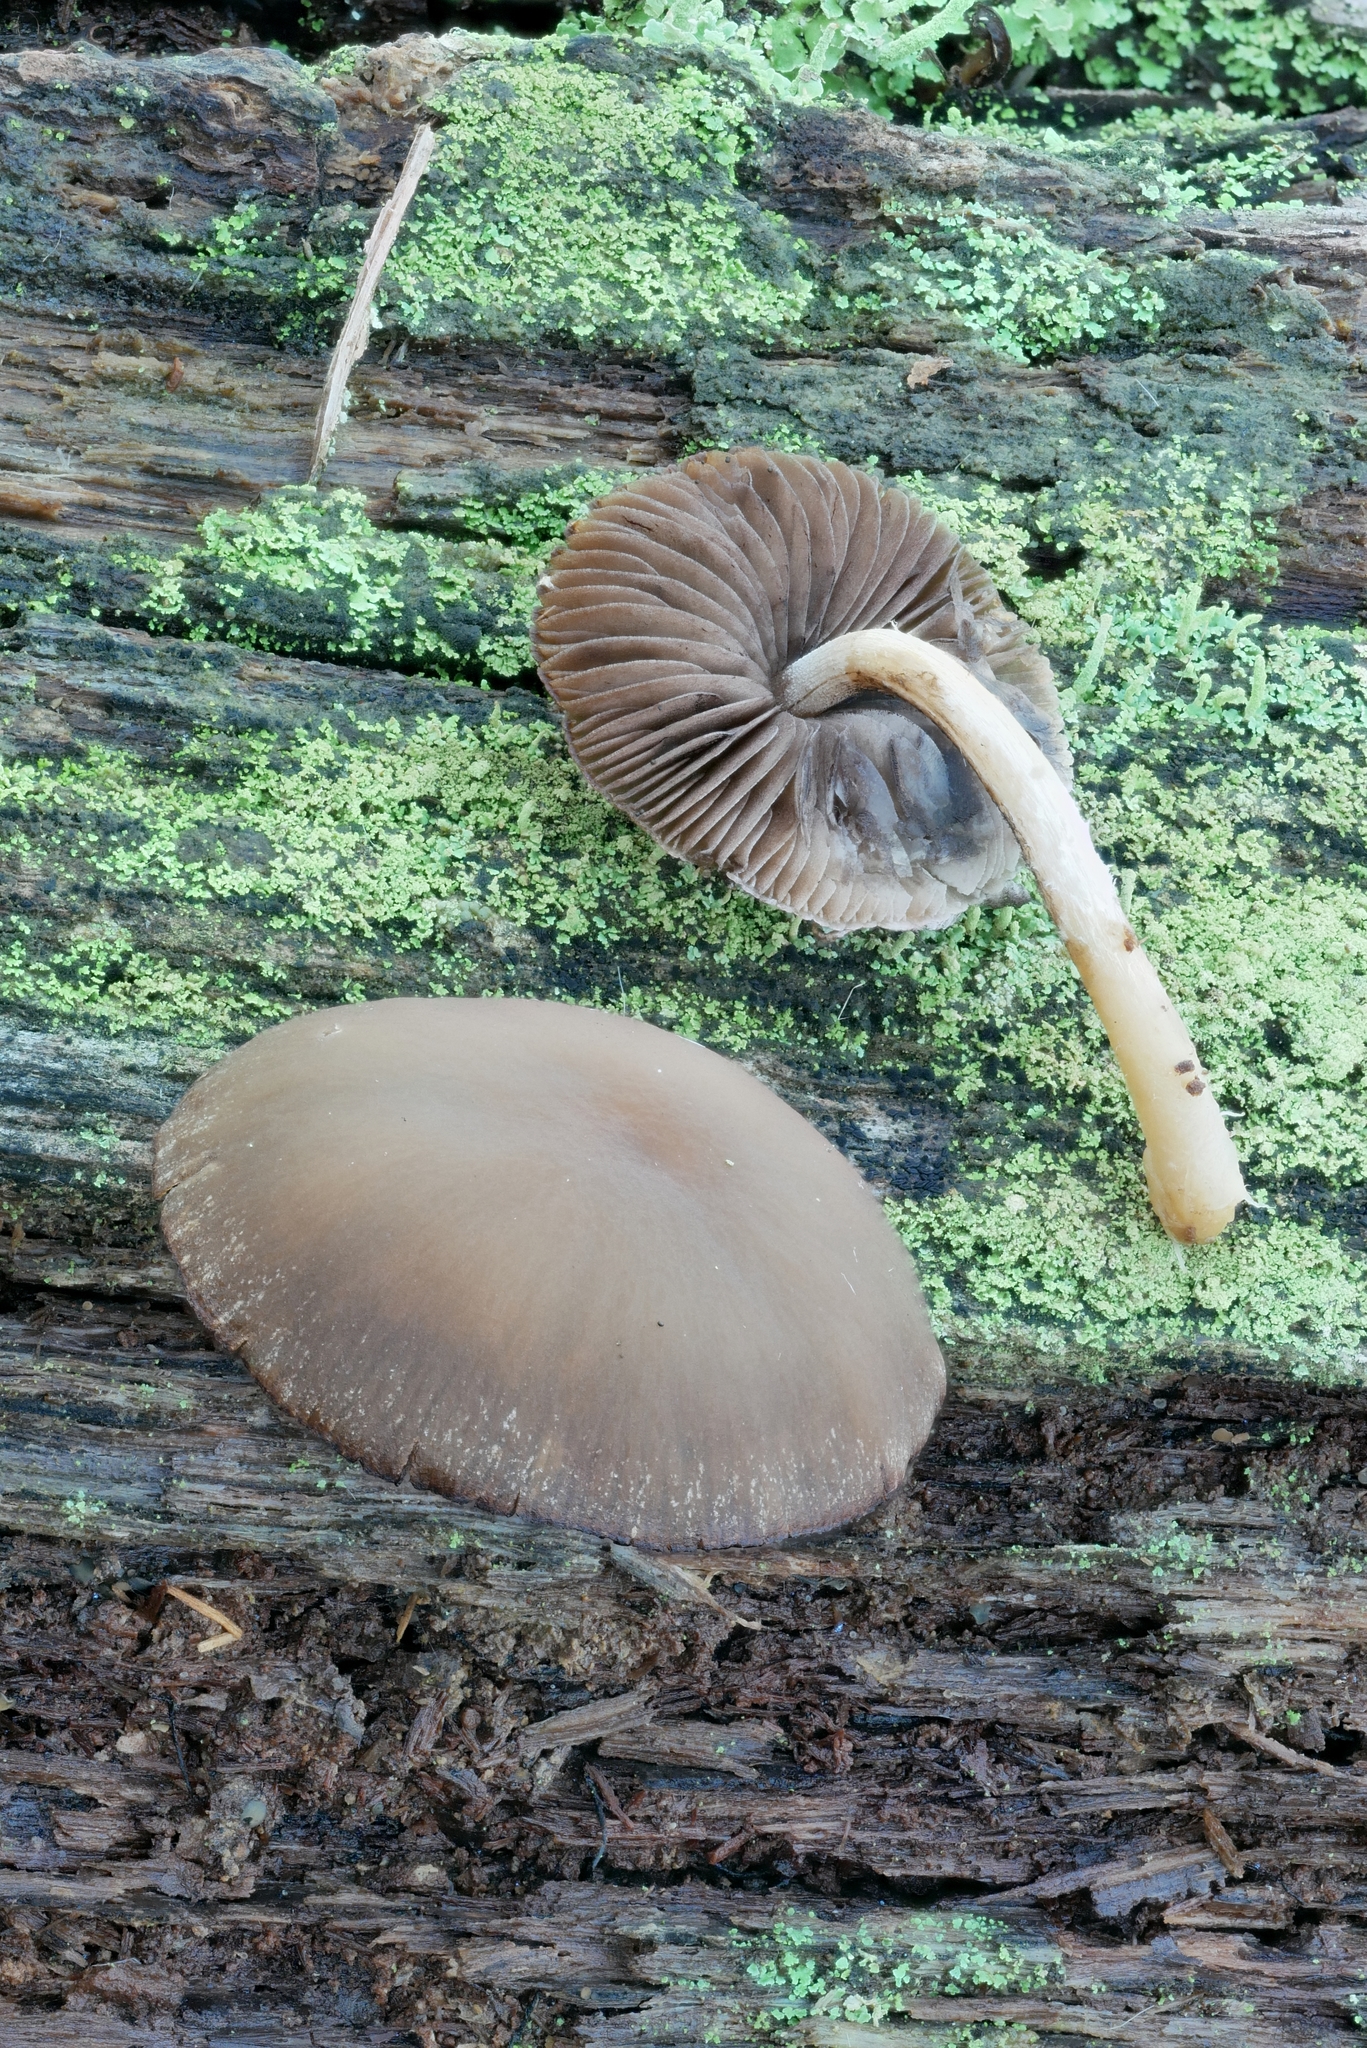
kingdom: Fungi
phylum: Basidiomycota
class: Agaricomycetes
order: Agaricales
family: Psathyrellaceae
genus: Psathyrella
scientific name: Psathyrella piluliformis
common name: Common stump brittlestem
